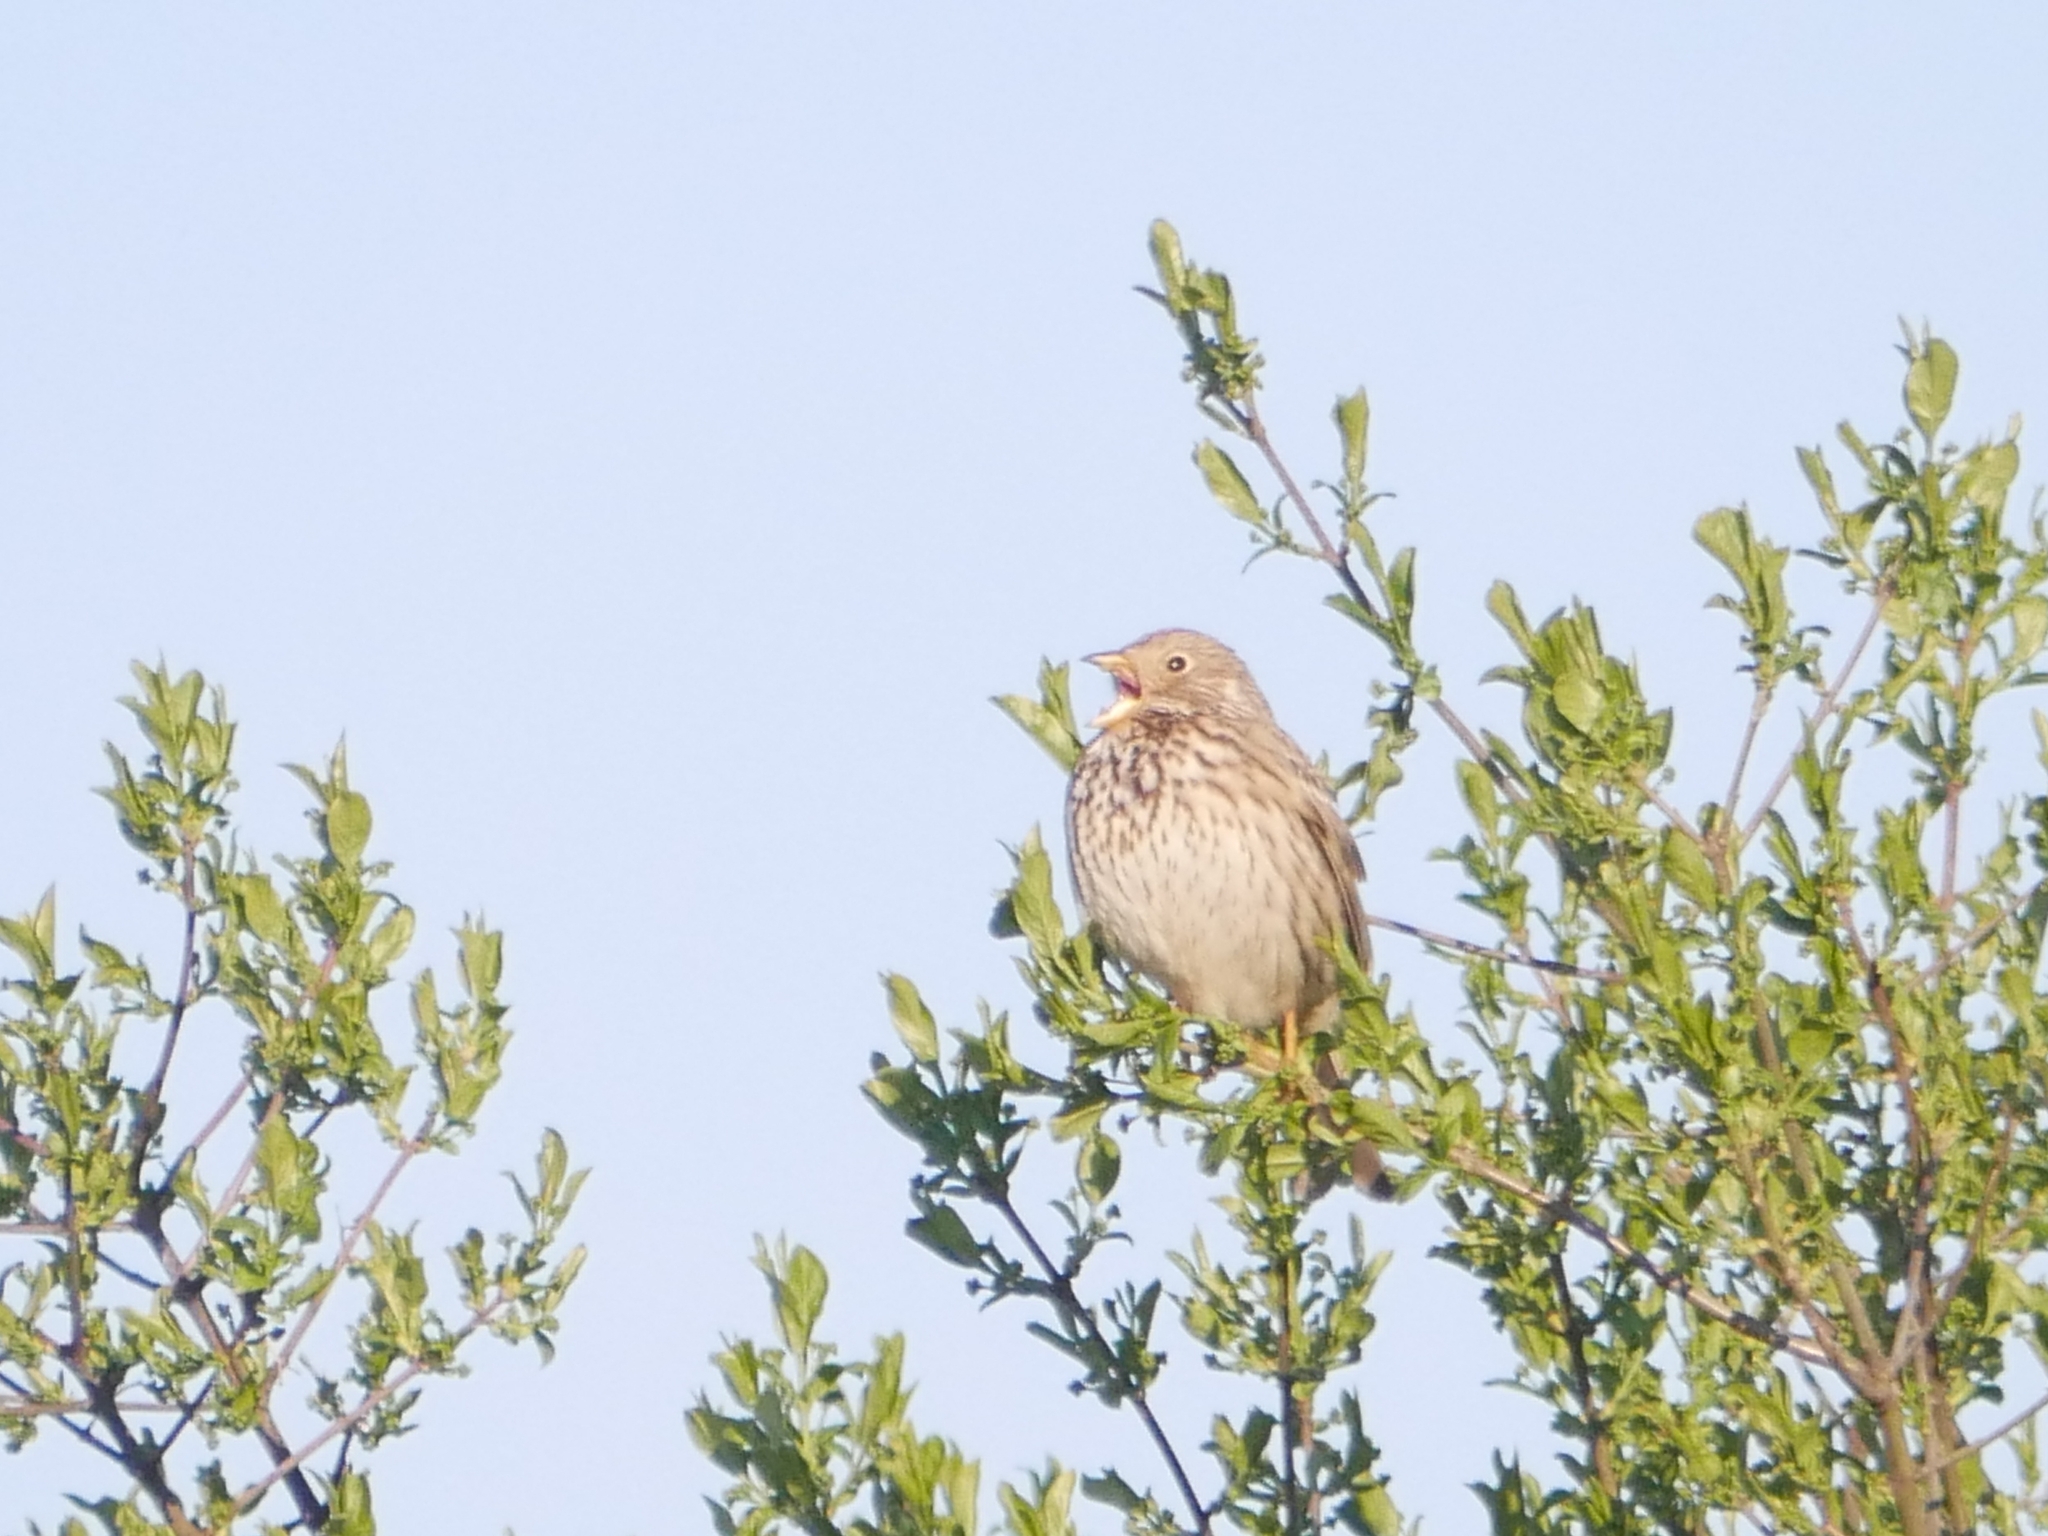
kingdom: Animalia
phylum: Chordata
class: Aves
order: Passeriformes
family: Emberizidae
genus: Emberiza
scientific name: Emberiza calandra
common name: Corn bunting
